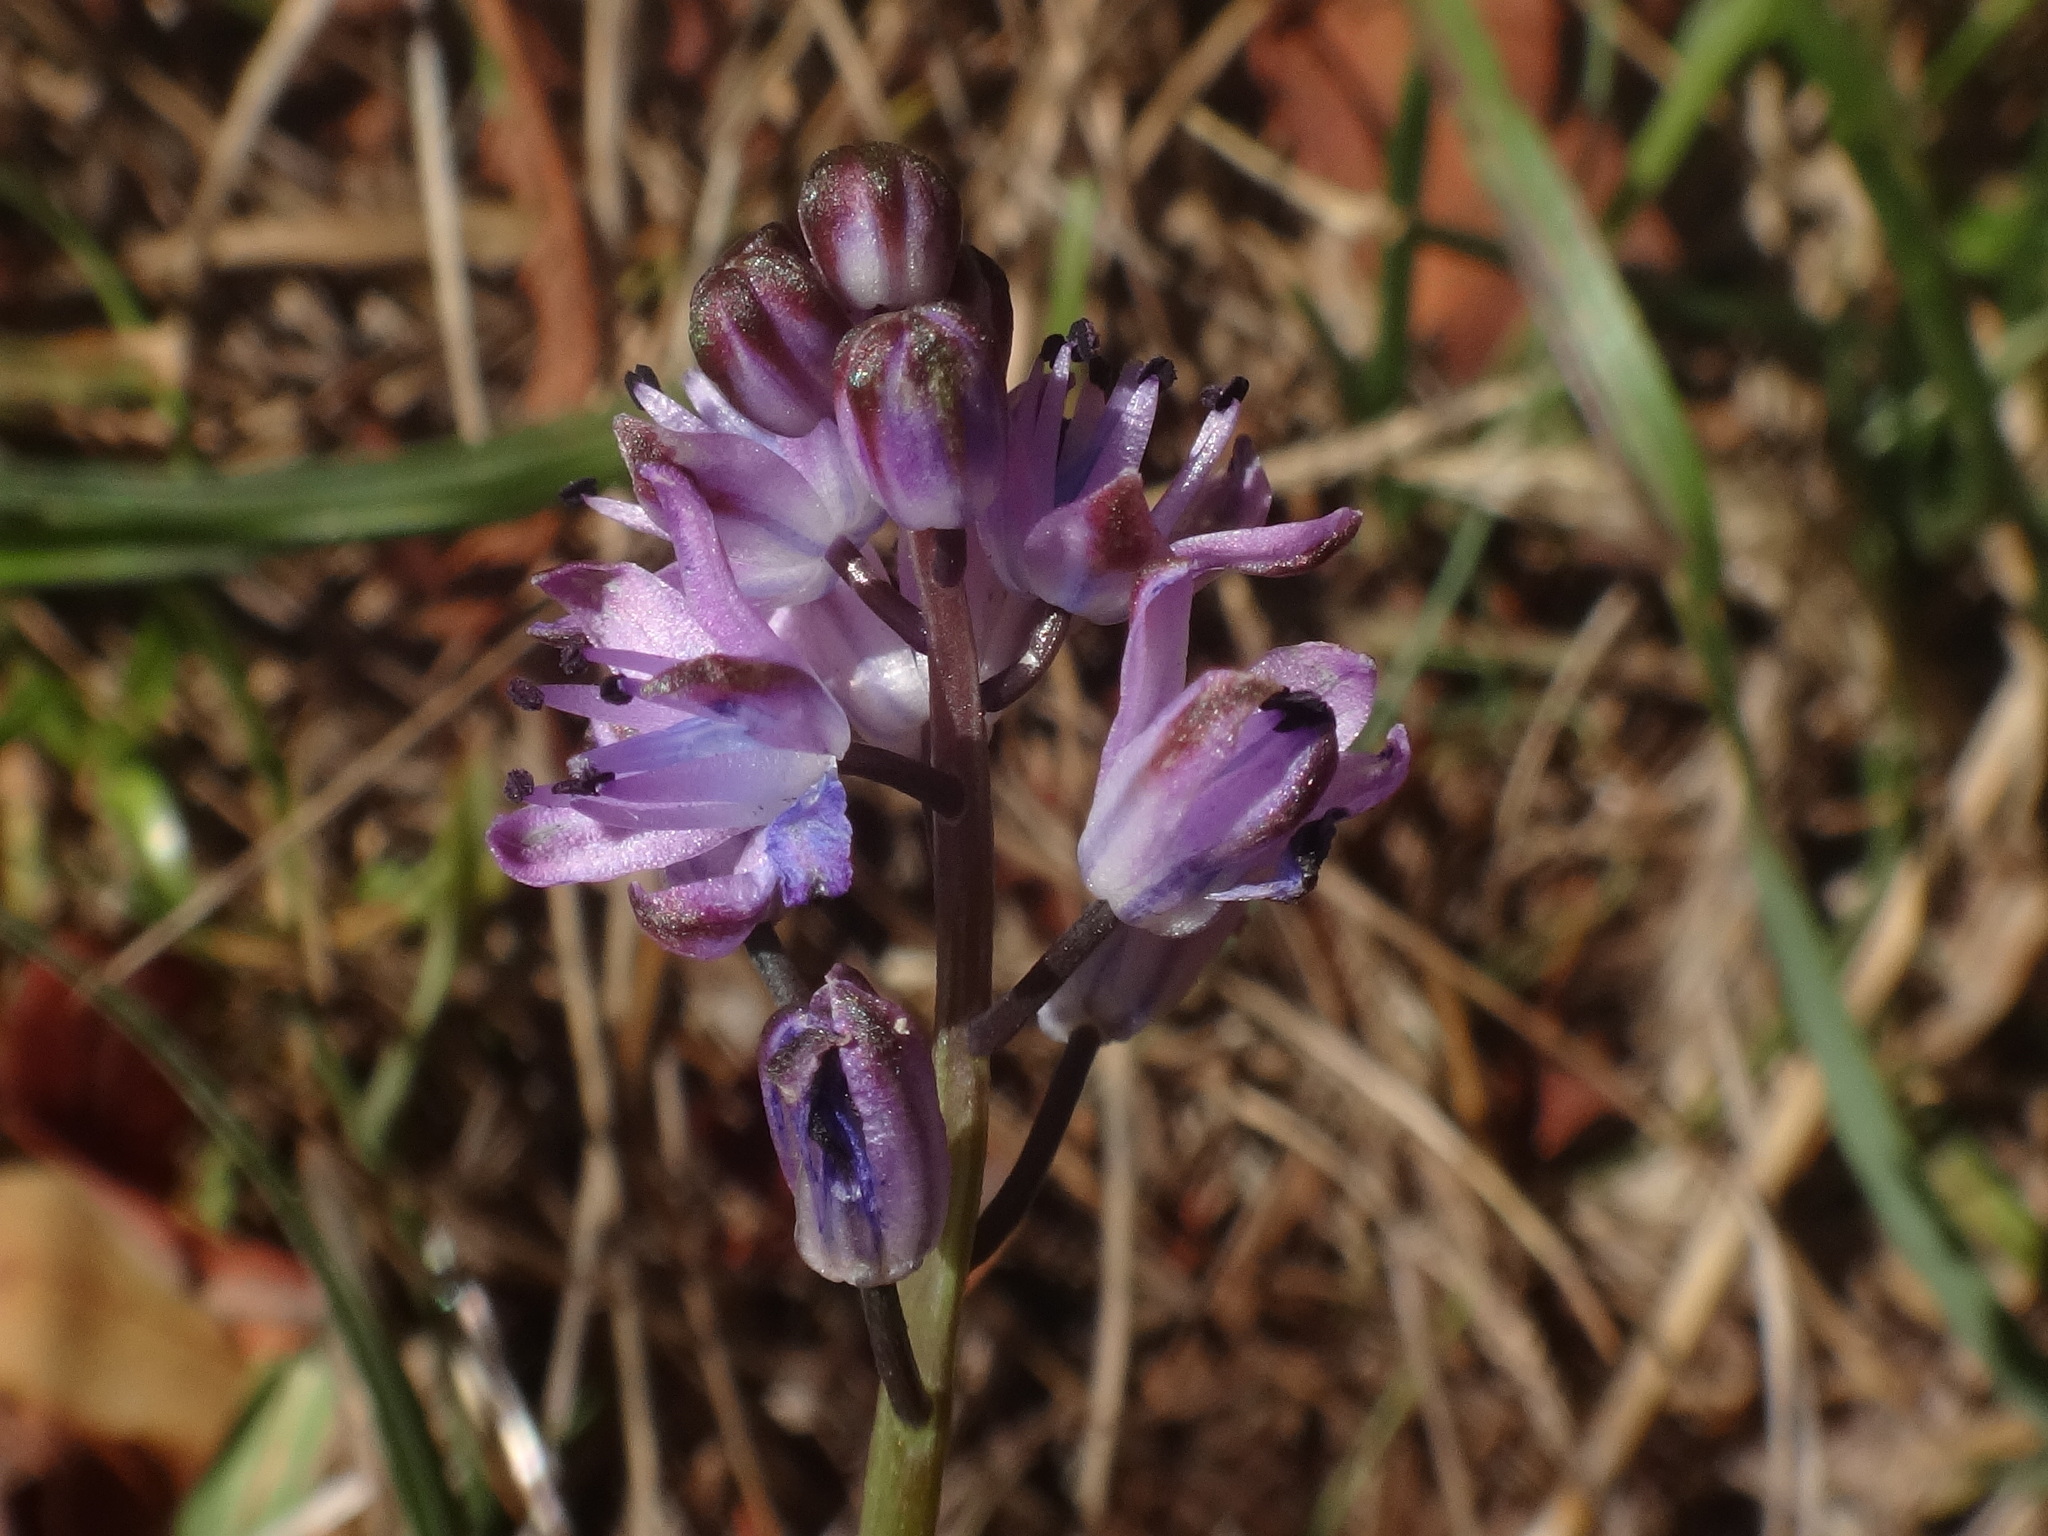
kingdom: Plantae
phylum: Tracheophyta
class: Liliopsida
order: Asparagales
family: Asparagaceae
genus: Prospero
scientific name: Prospero elisae
